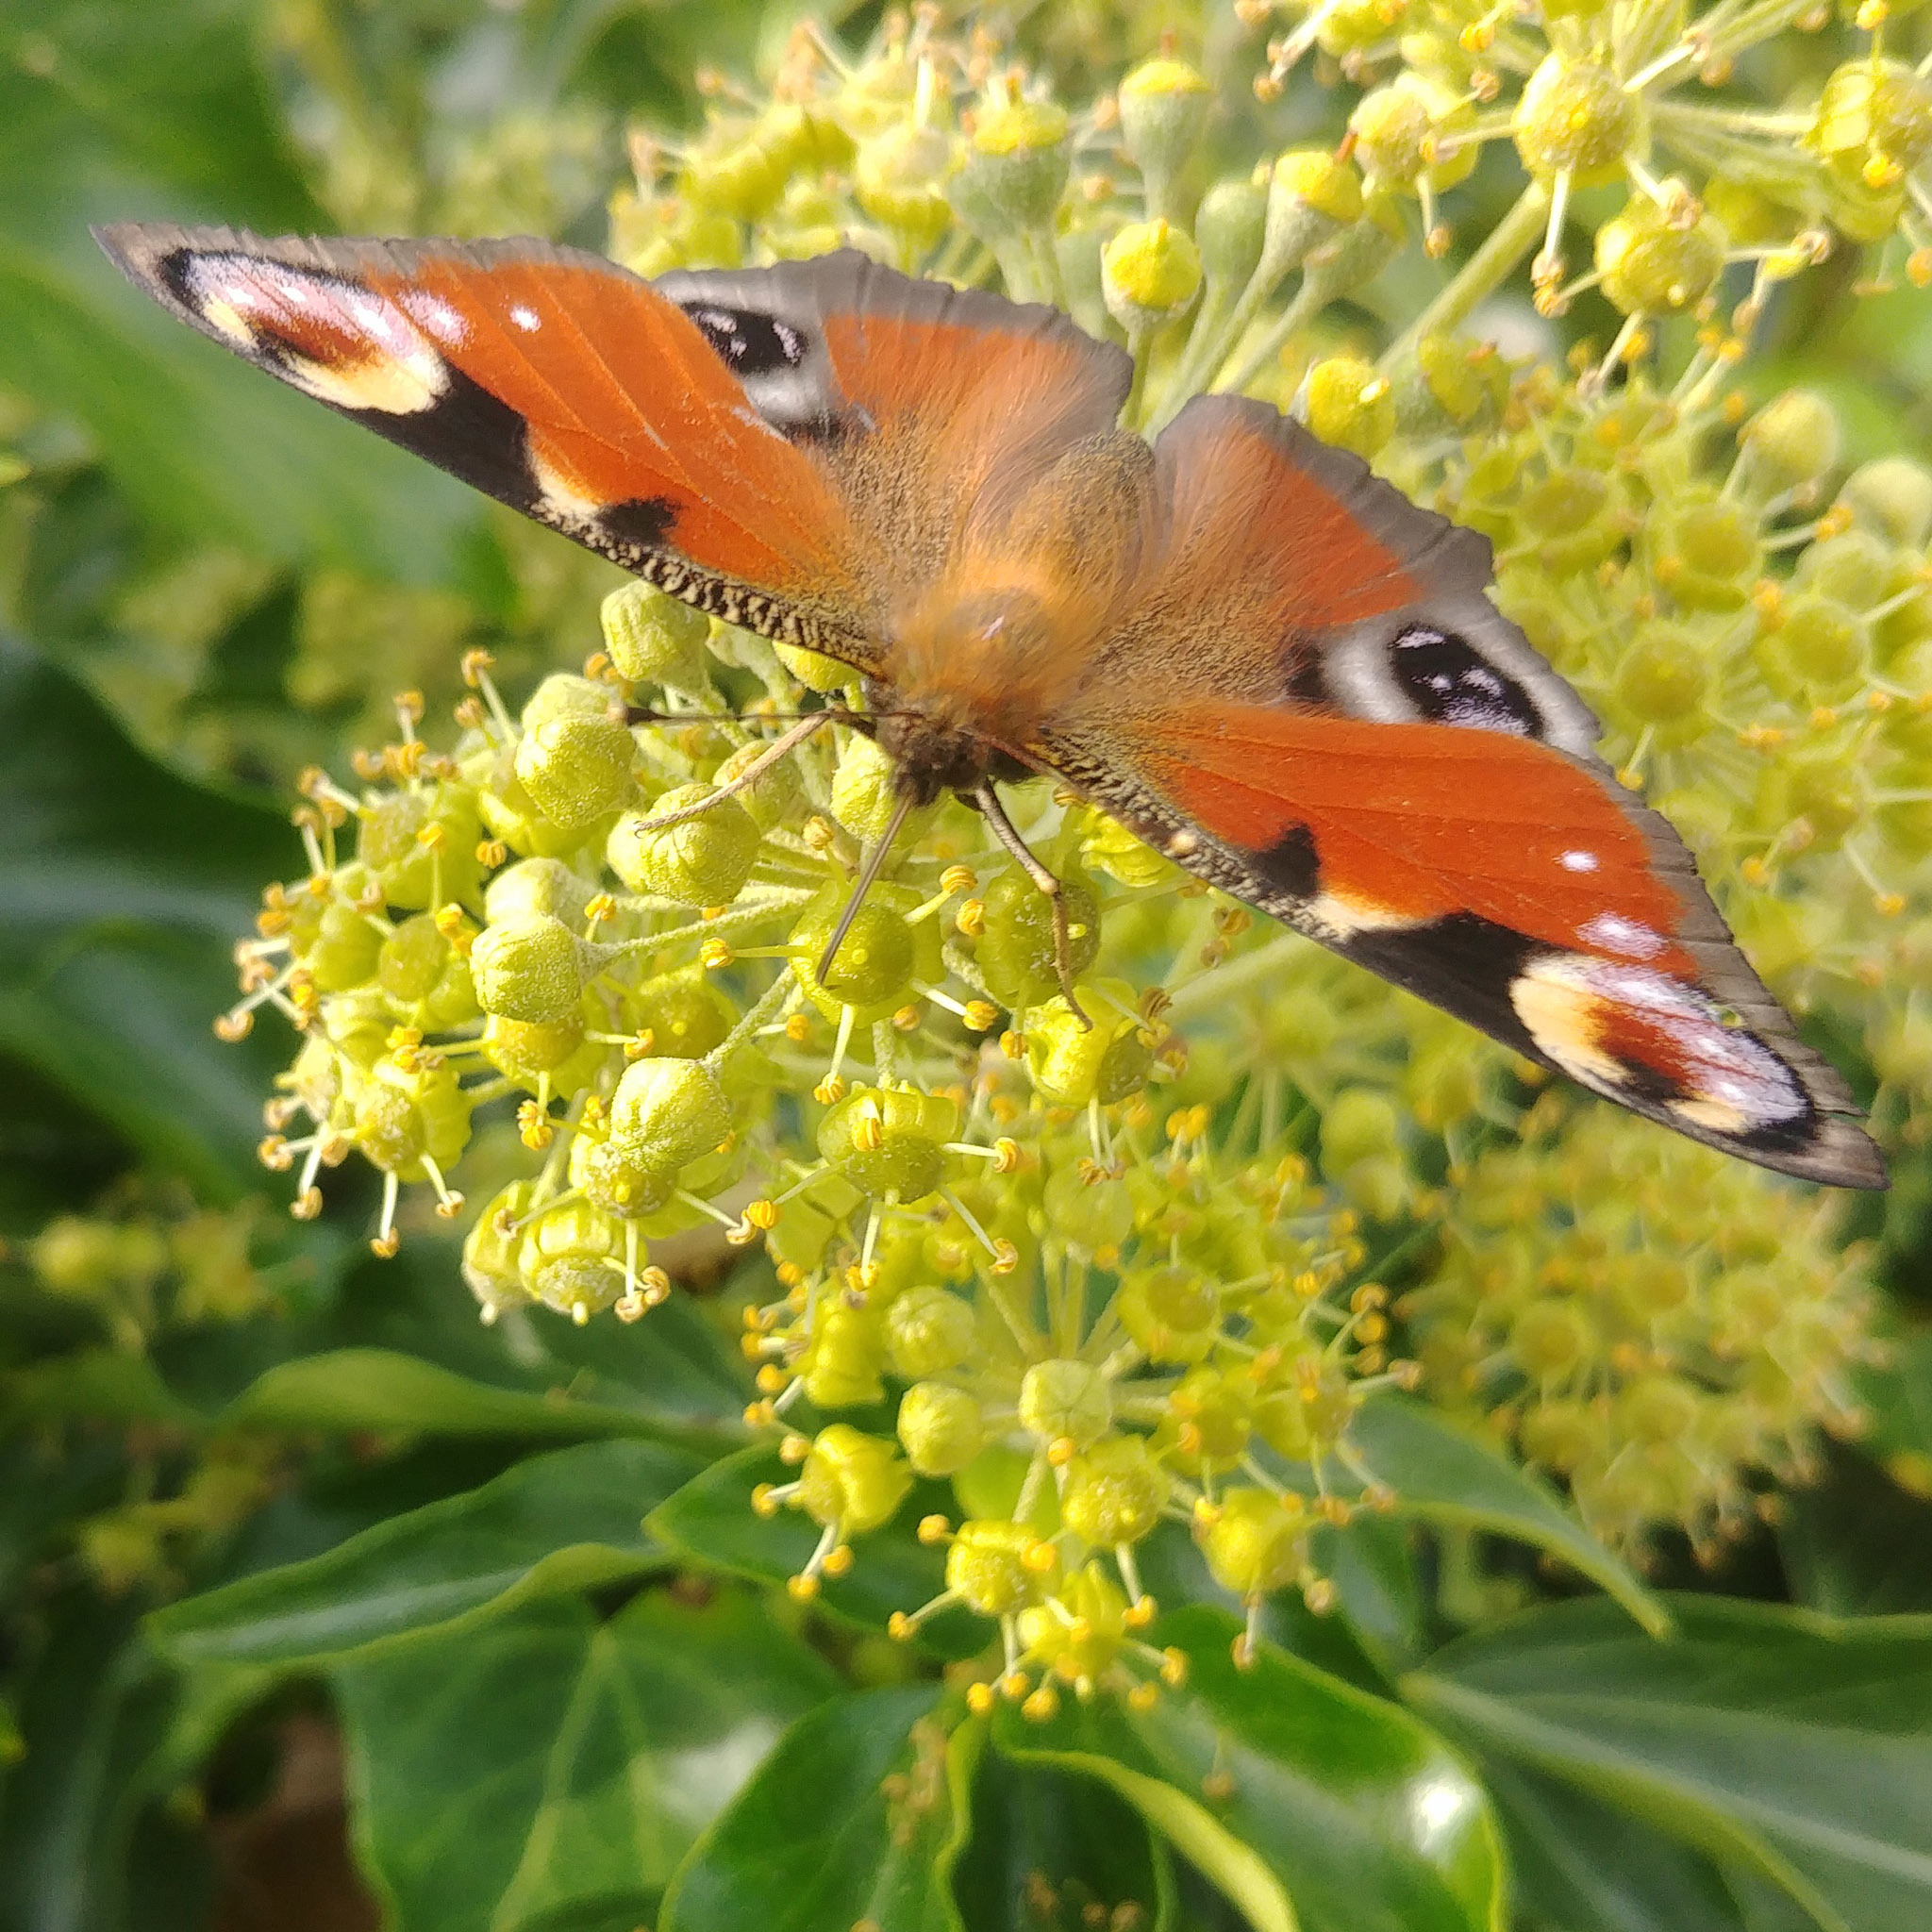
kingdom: Animalia
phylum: Arthropoda
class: Insecta
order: Lepidoptera
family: Nymphalidae
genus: Aglais
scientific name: Aglais io
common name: Peacock
